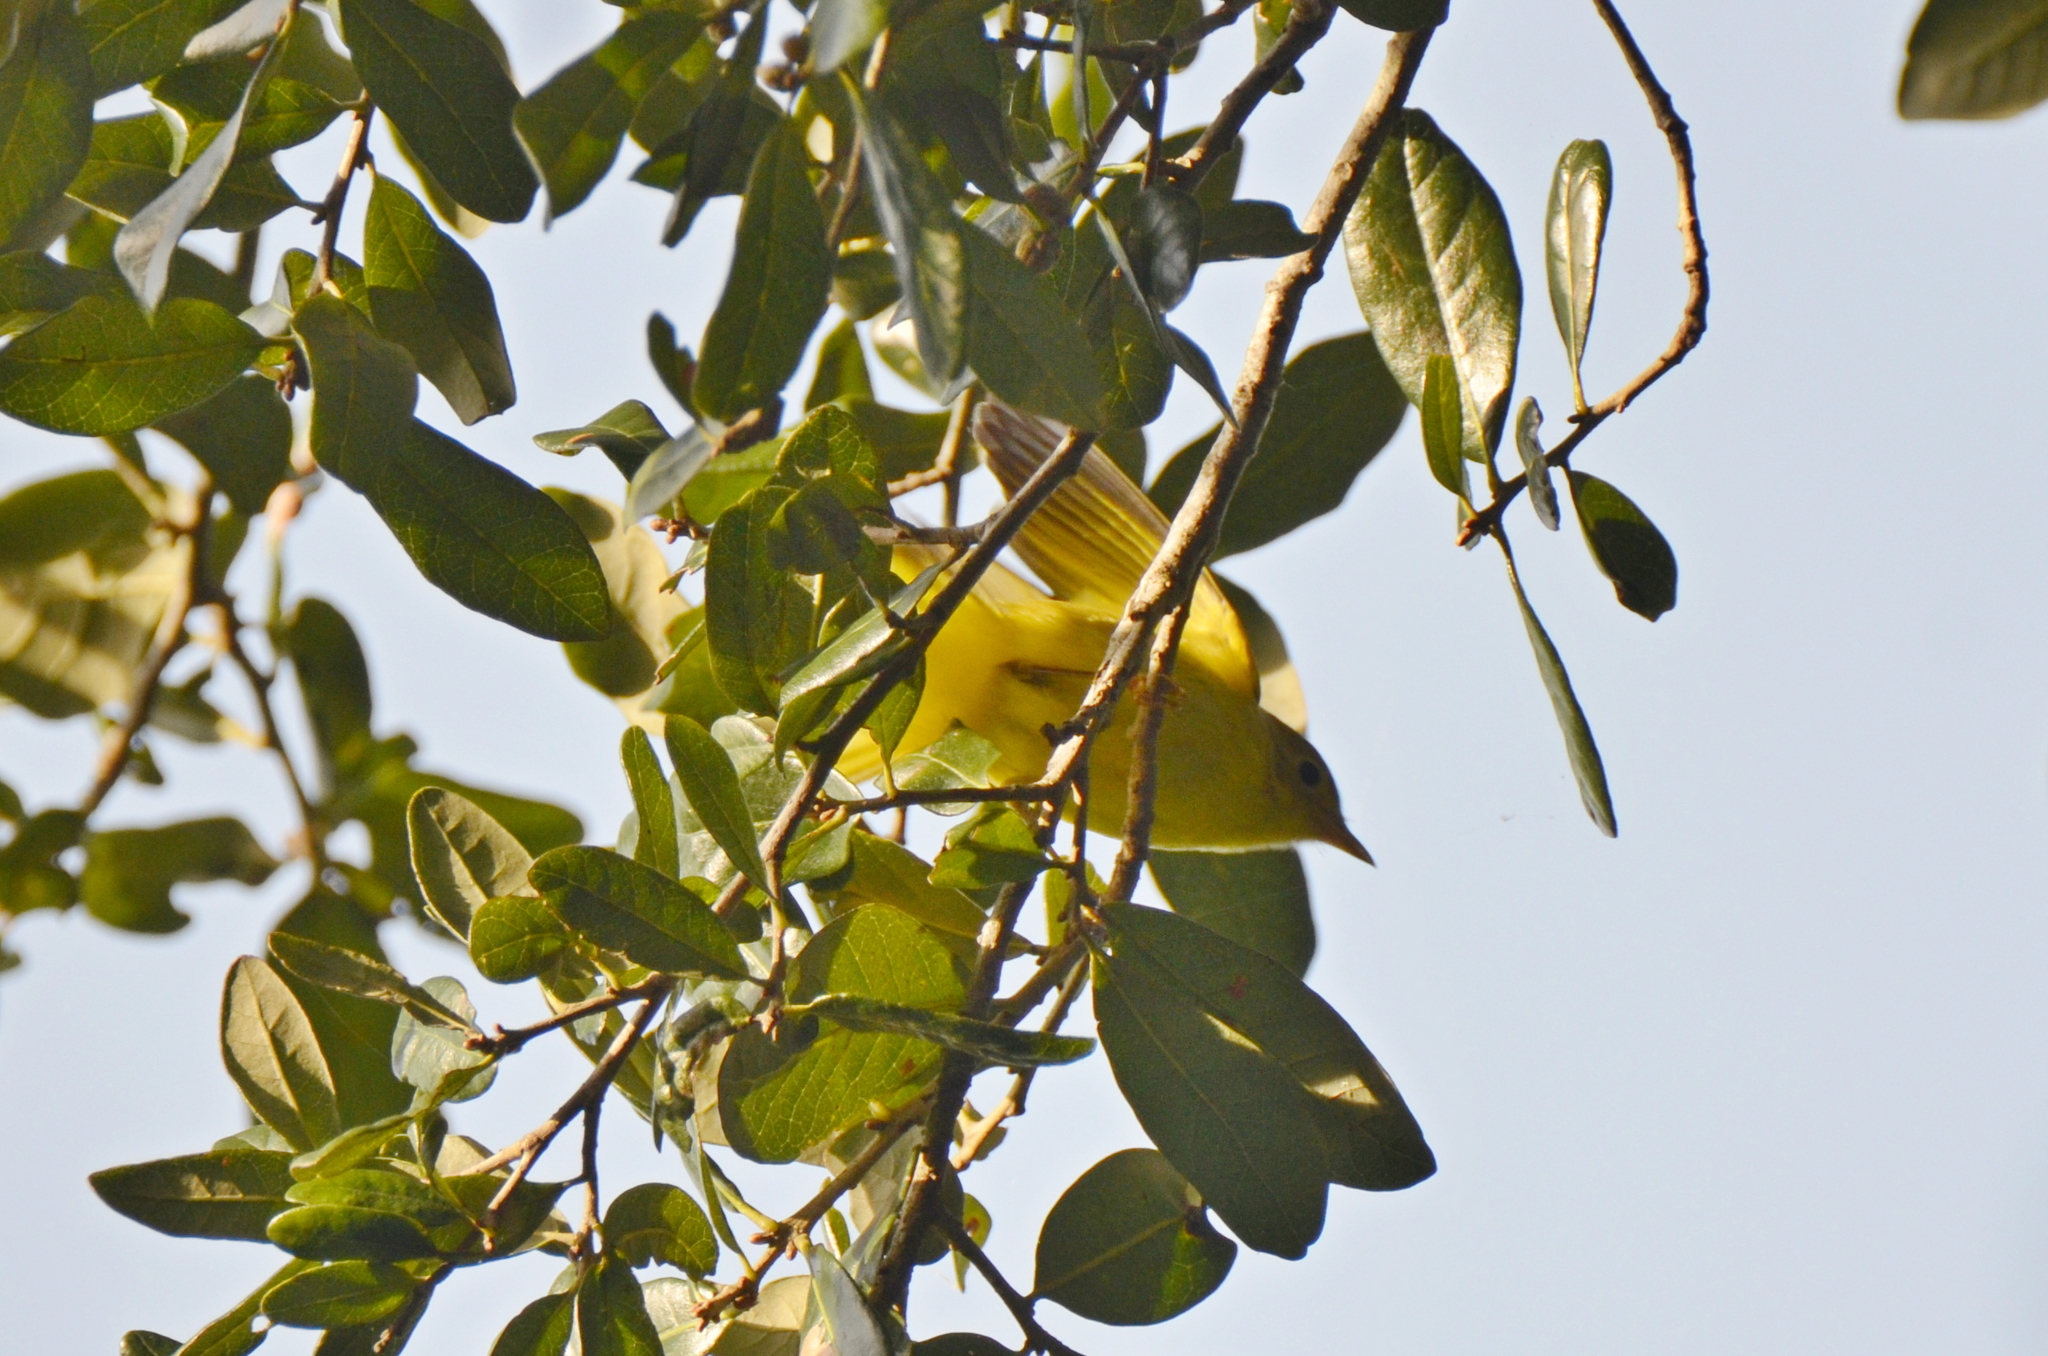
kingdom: Animalia
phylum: Chordata
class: Aves
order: Passeriformes
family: Parulidae
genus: Setophaga
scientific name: Setophaga petechia
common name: Yellow warbler
